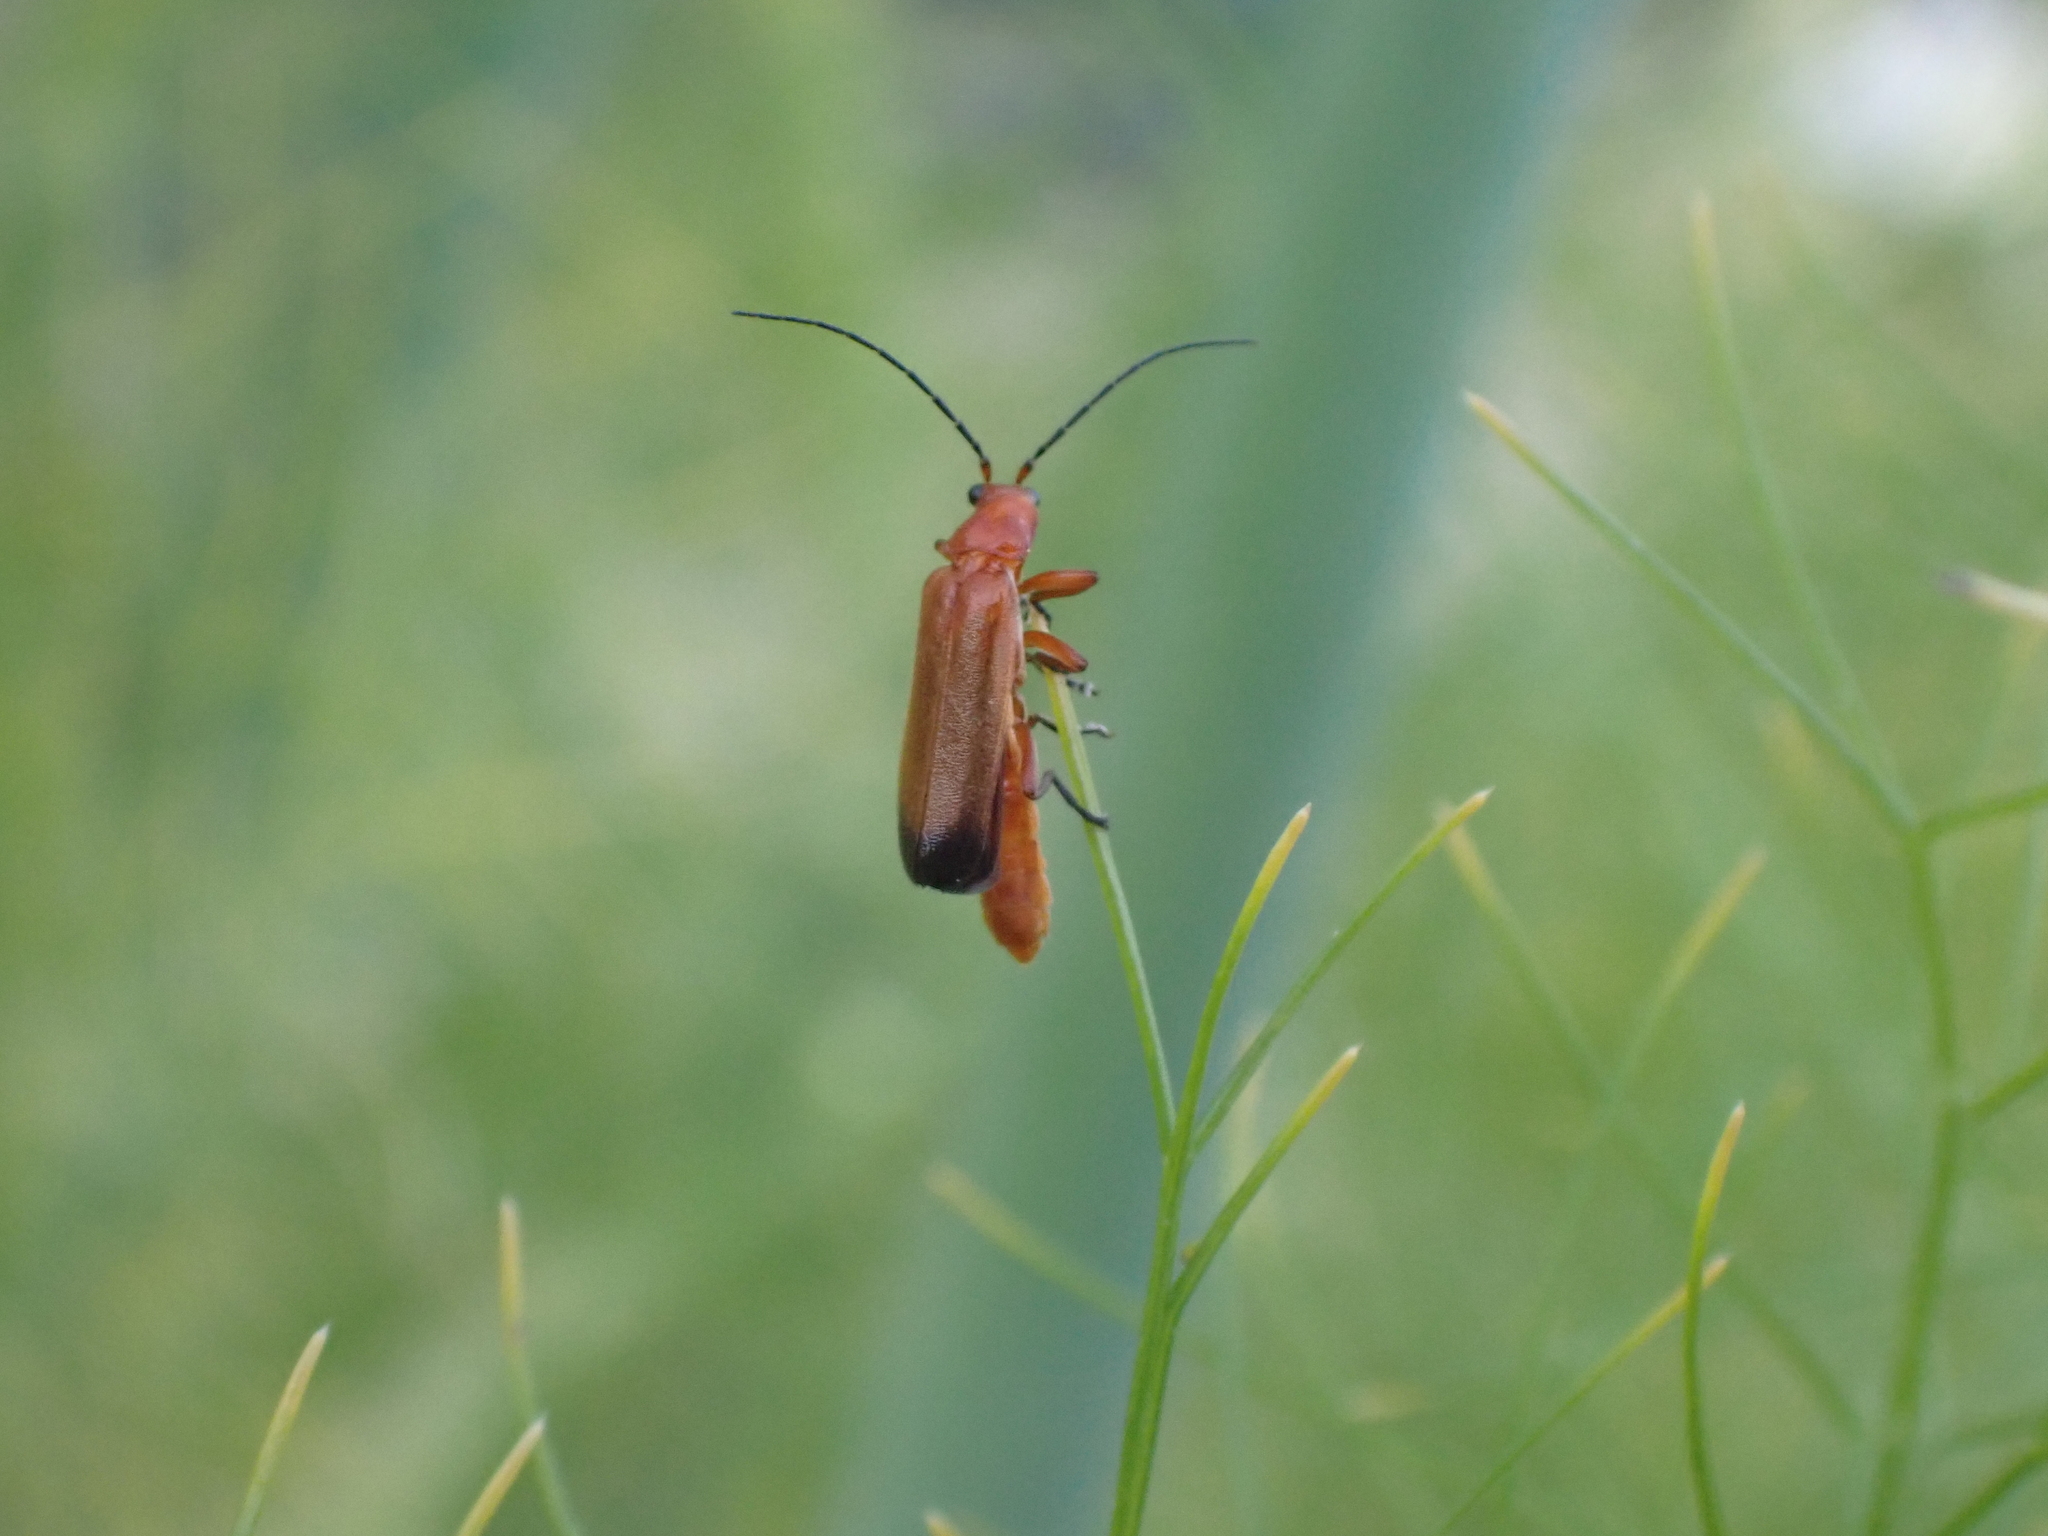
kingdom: Animalia
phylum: Arthropoda
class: Insecta
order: Coleoptera
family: Cantharidae
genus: Rhagonycha
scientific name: Rhagonycha fulva
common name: Common red soldier beetle
